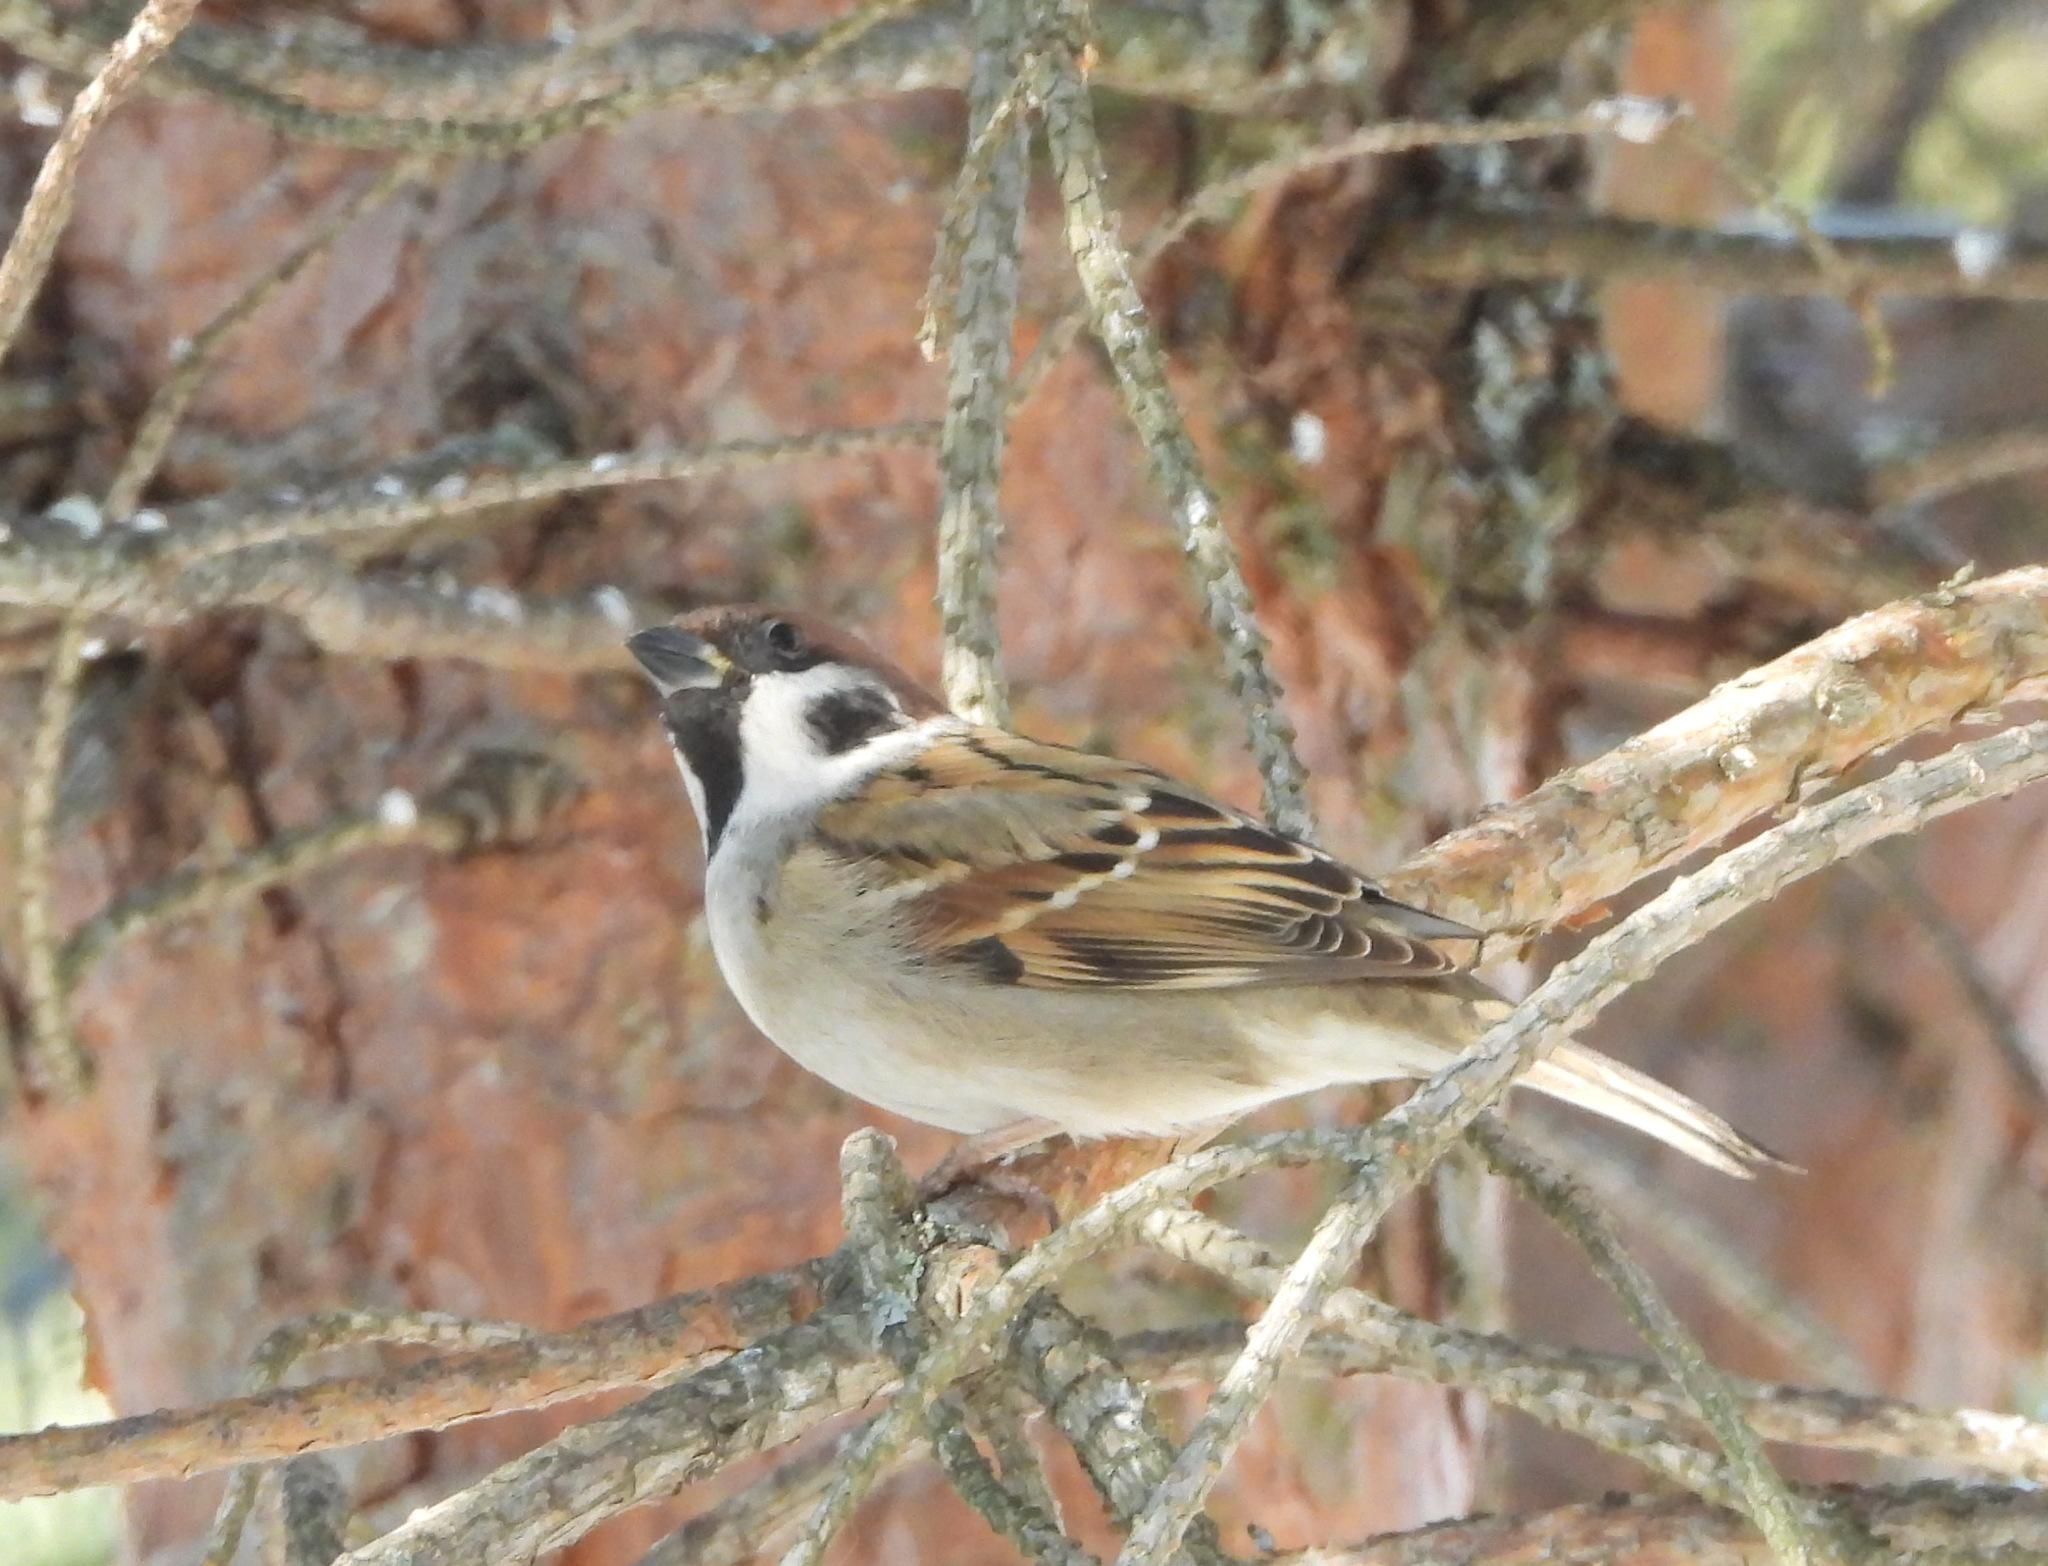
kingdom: Animalia
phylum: Chordata
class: Aves
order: Passeriformes
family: Passeridae
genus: Passer
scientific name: Passer montanus
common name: Eurasian tree sparrow
